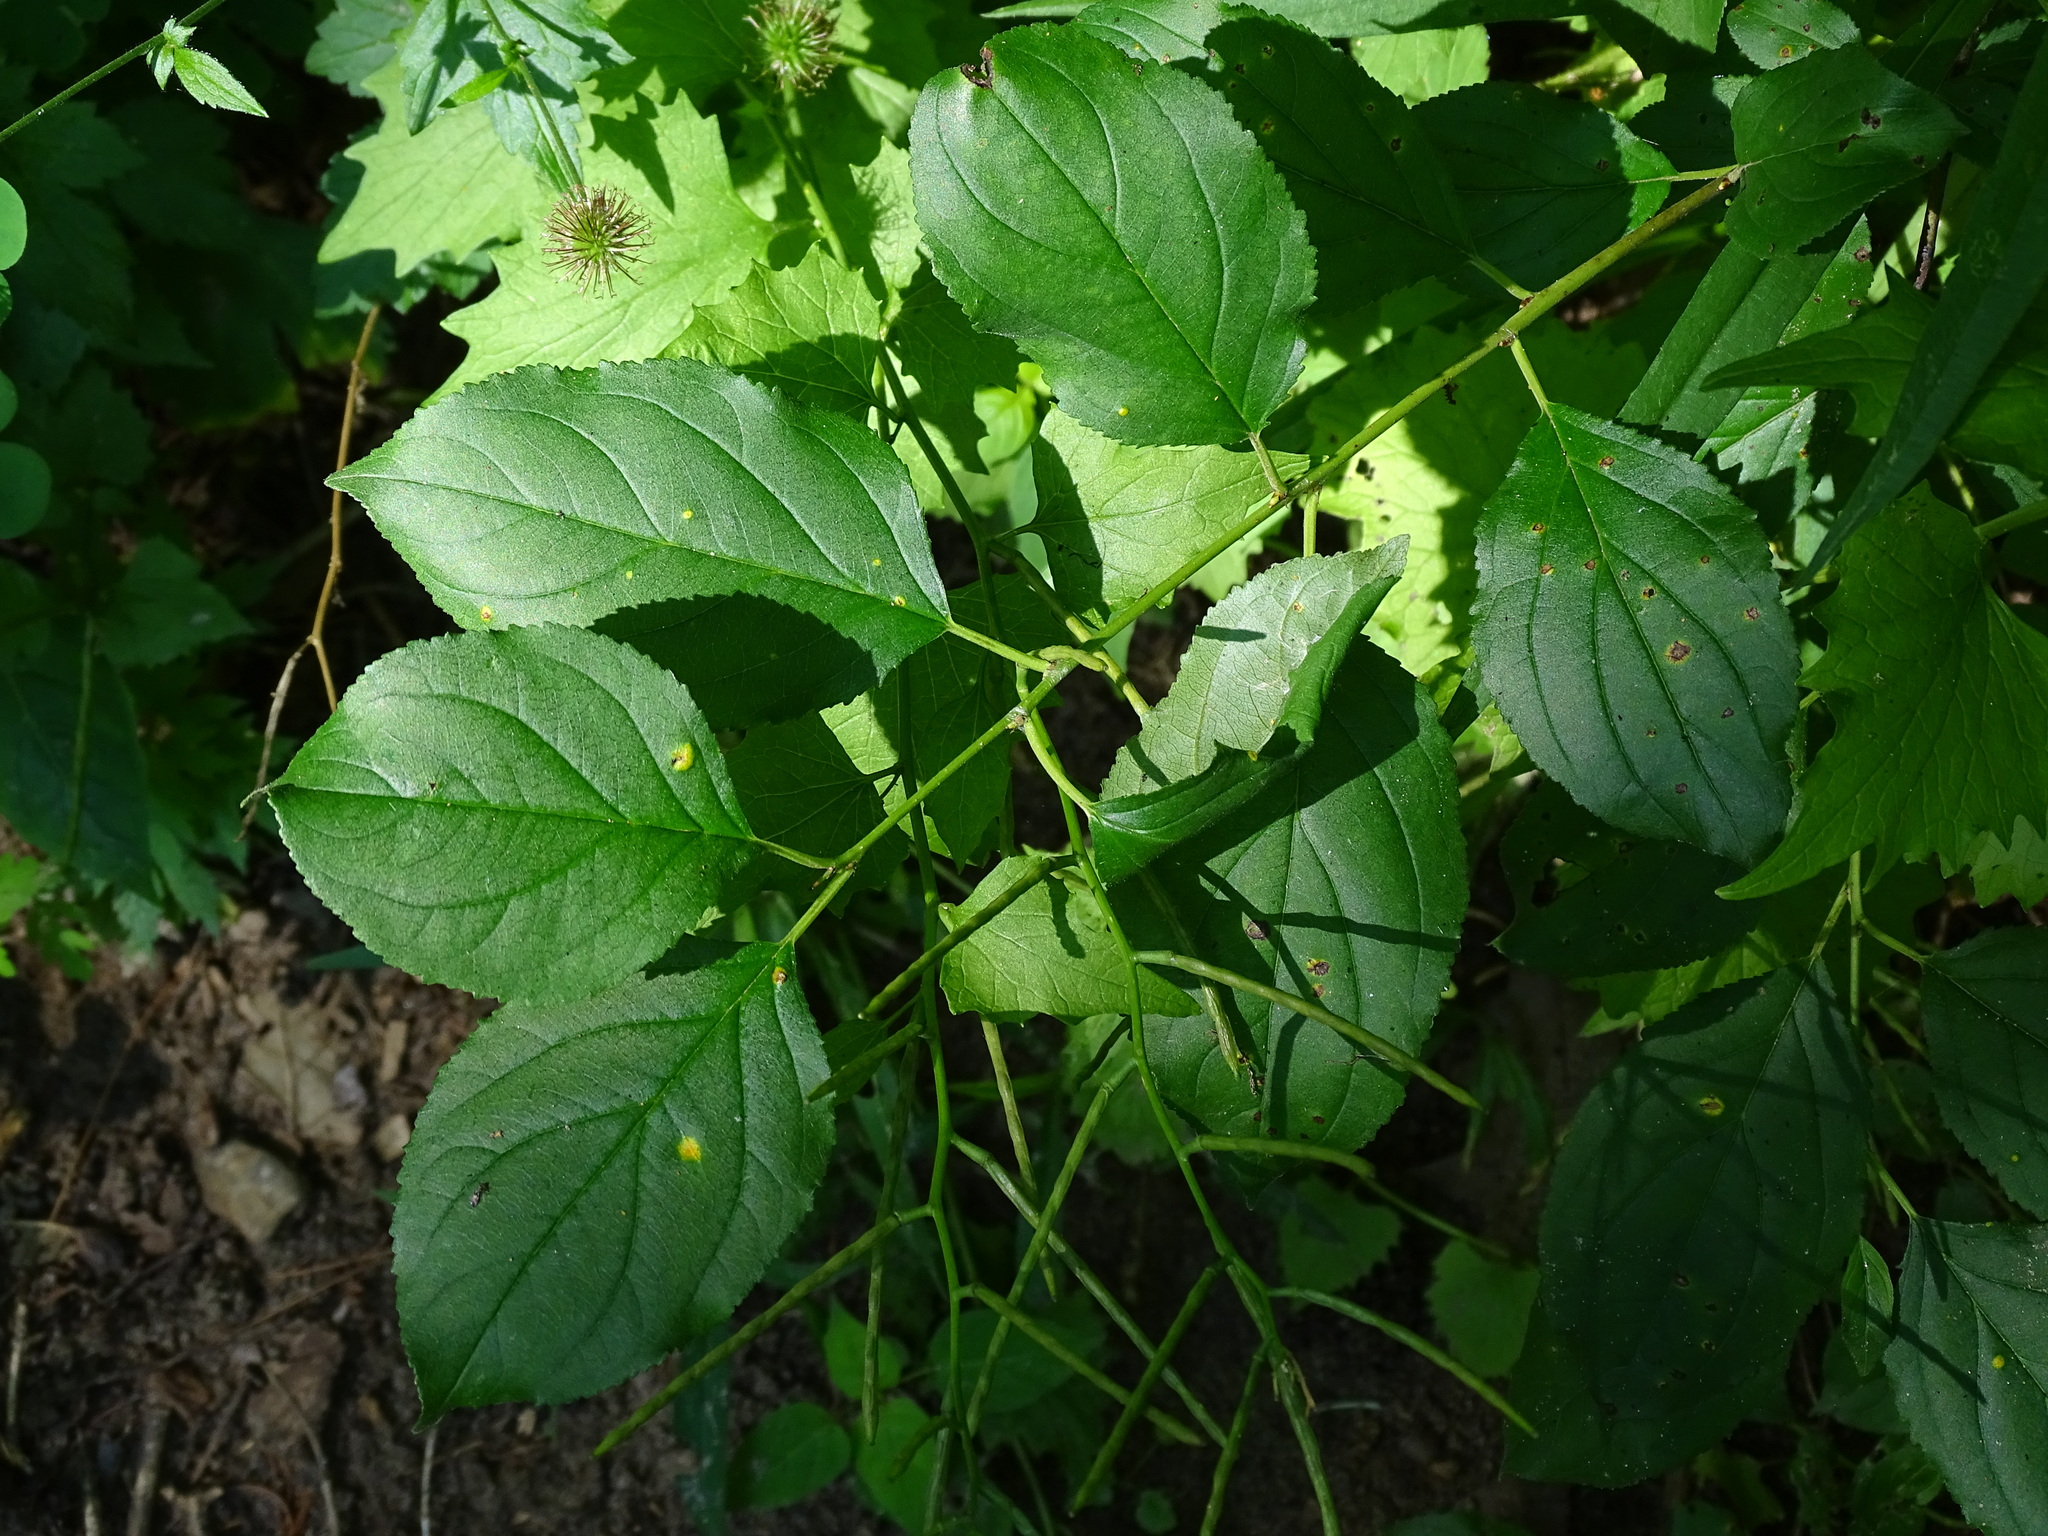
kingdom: Plantae
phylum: Tracheophyta
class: Magnoliopsida
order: Rosales
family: Rhamnaceae
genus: Rhamnus
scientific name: Rhamnus cathartica
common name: Common buckthorn
